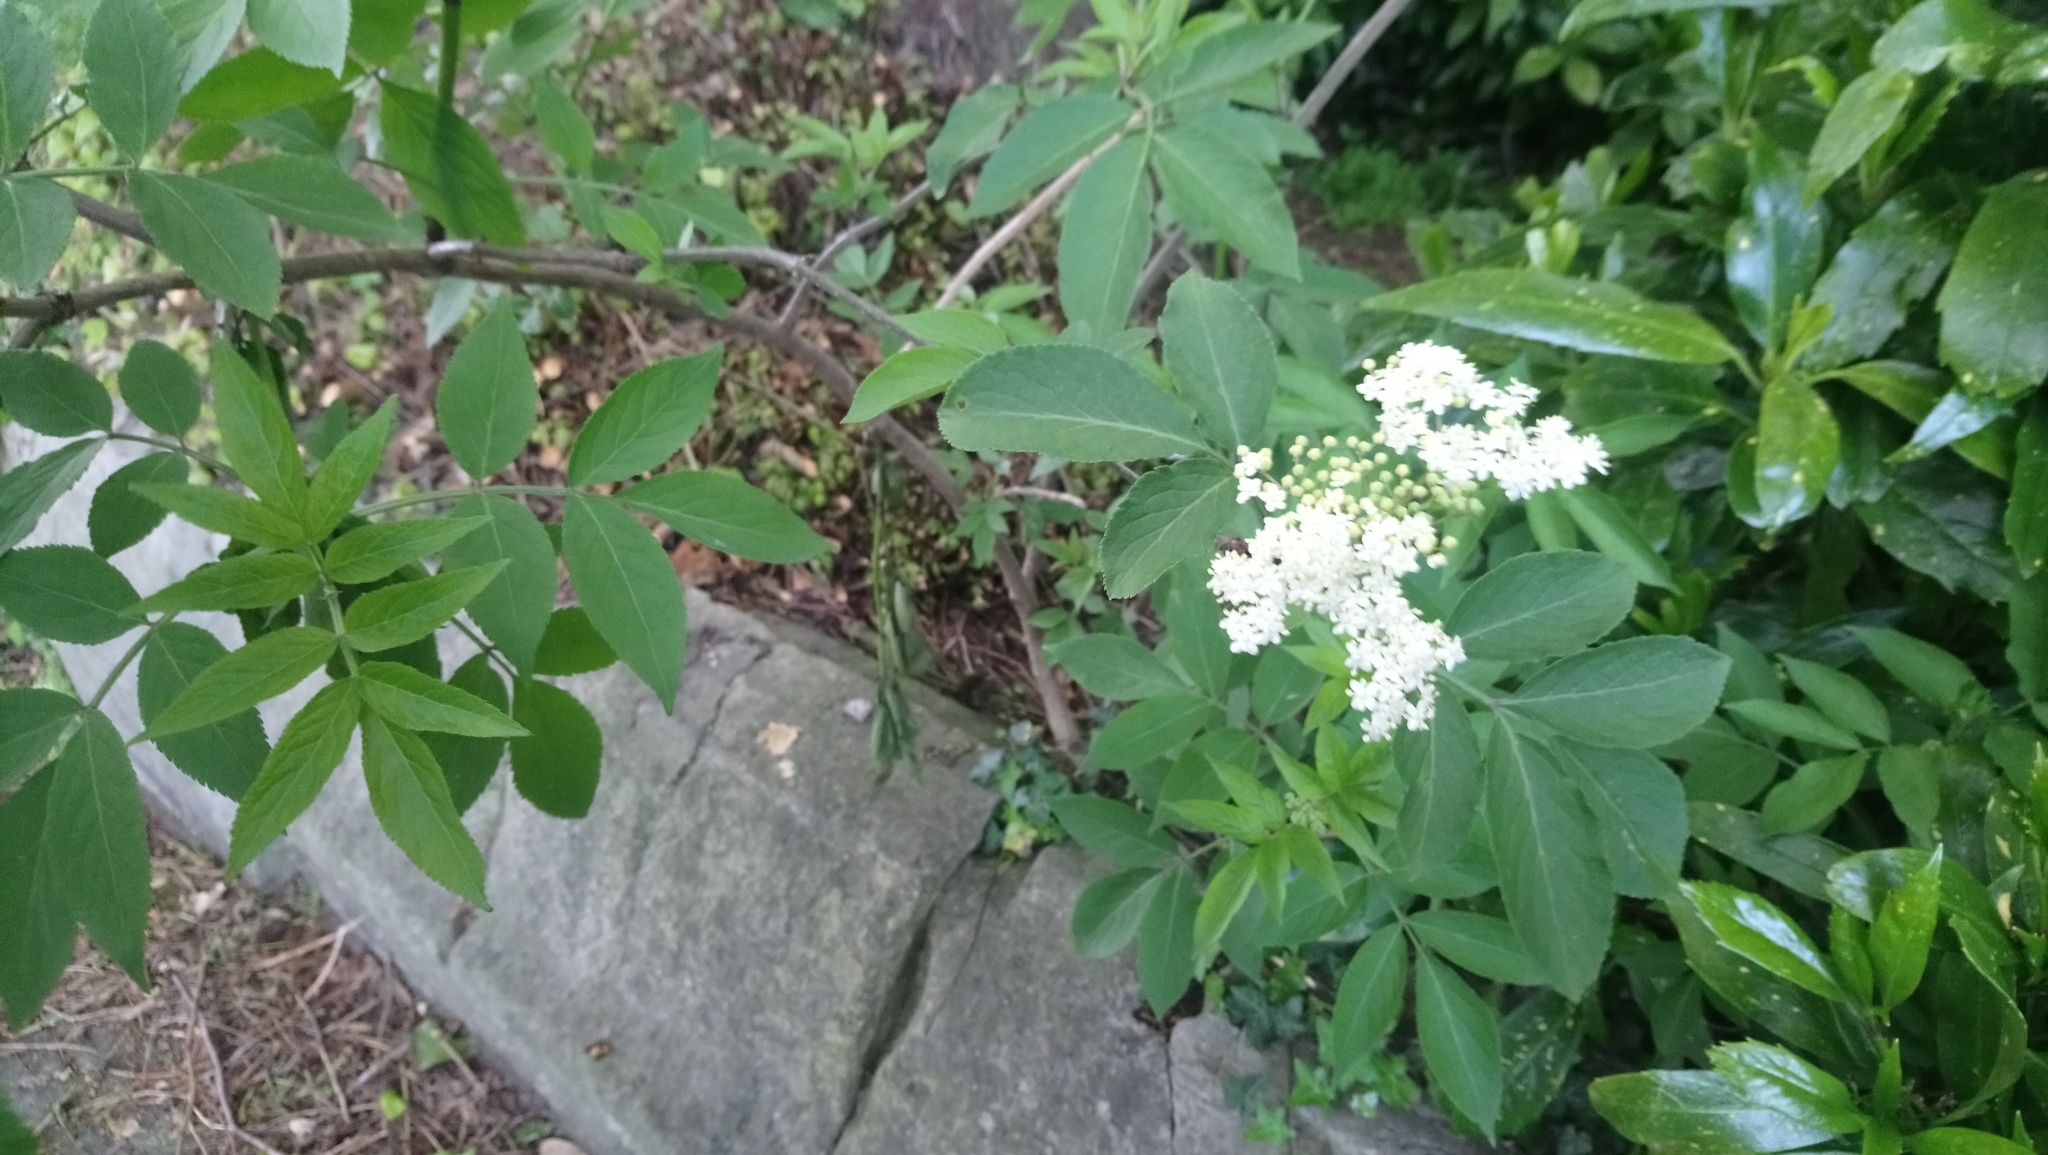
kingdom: Plantae
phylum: Tracheophyta
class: Magnoliopsida
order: Dipsacales
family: Viburnaceae
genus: Sambucus
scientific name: Sambucus nigra
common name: Elder
